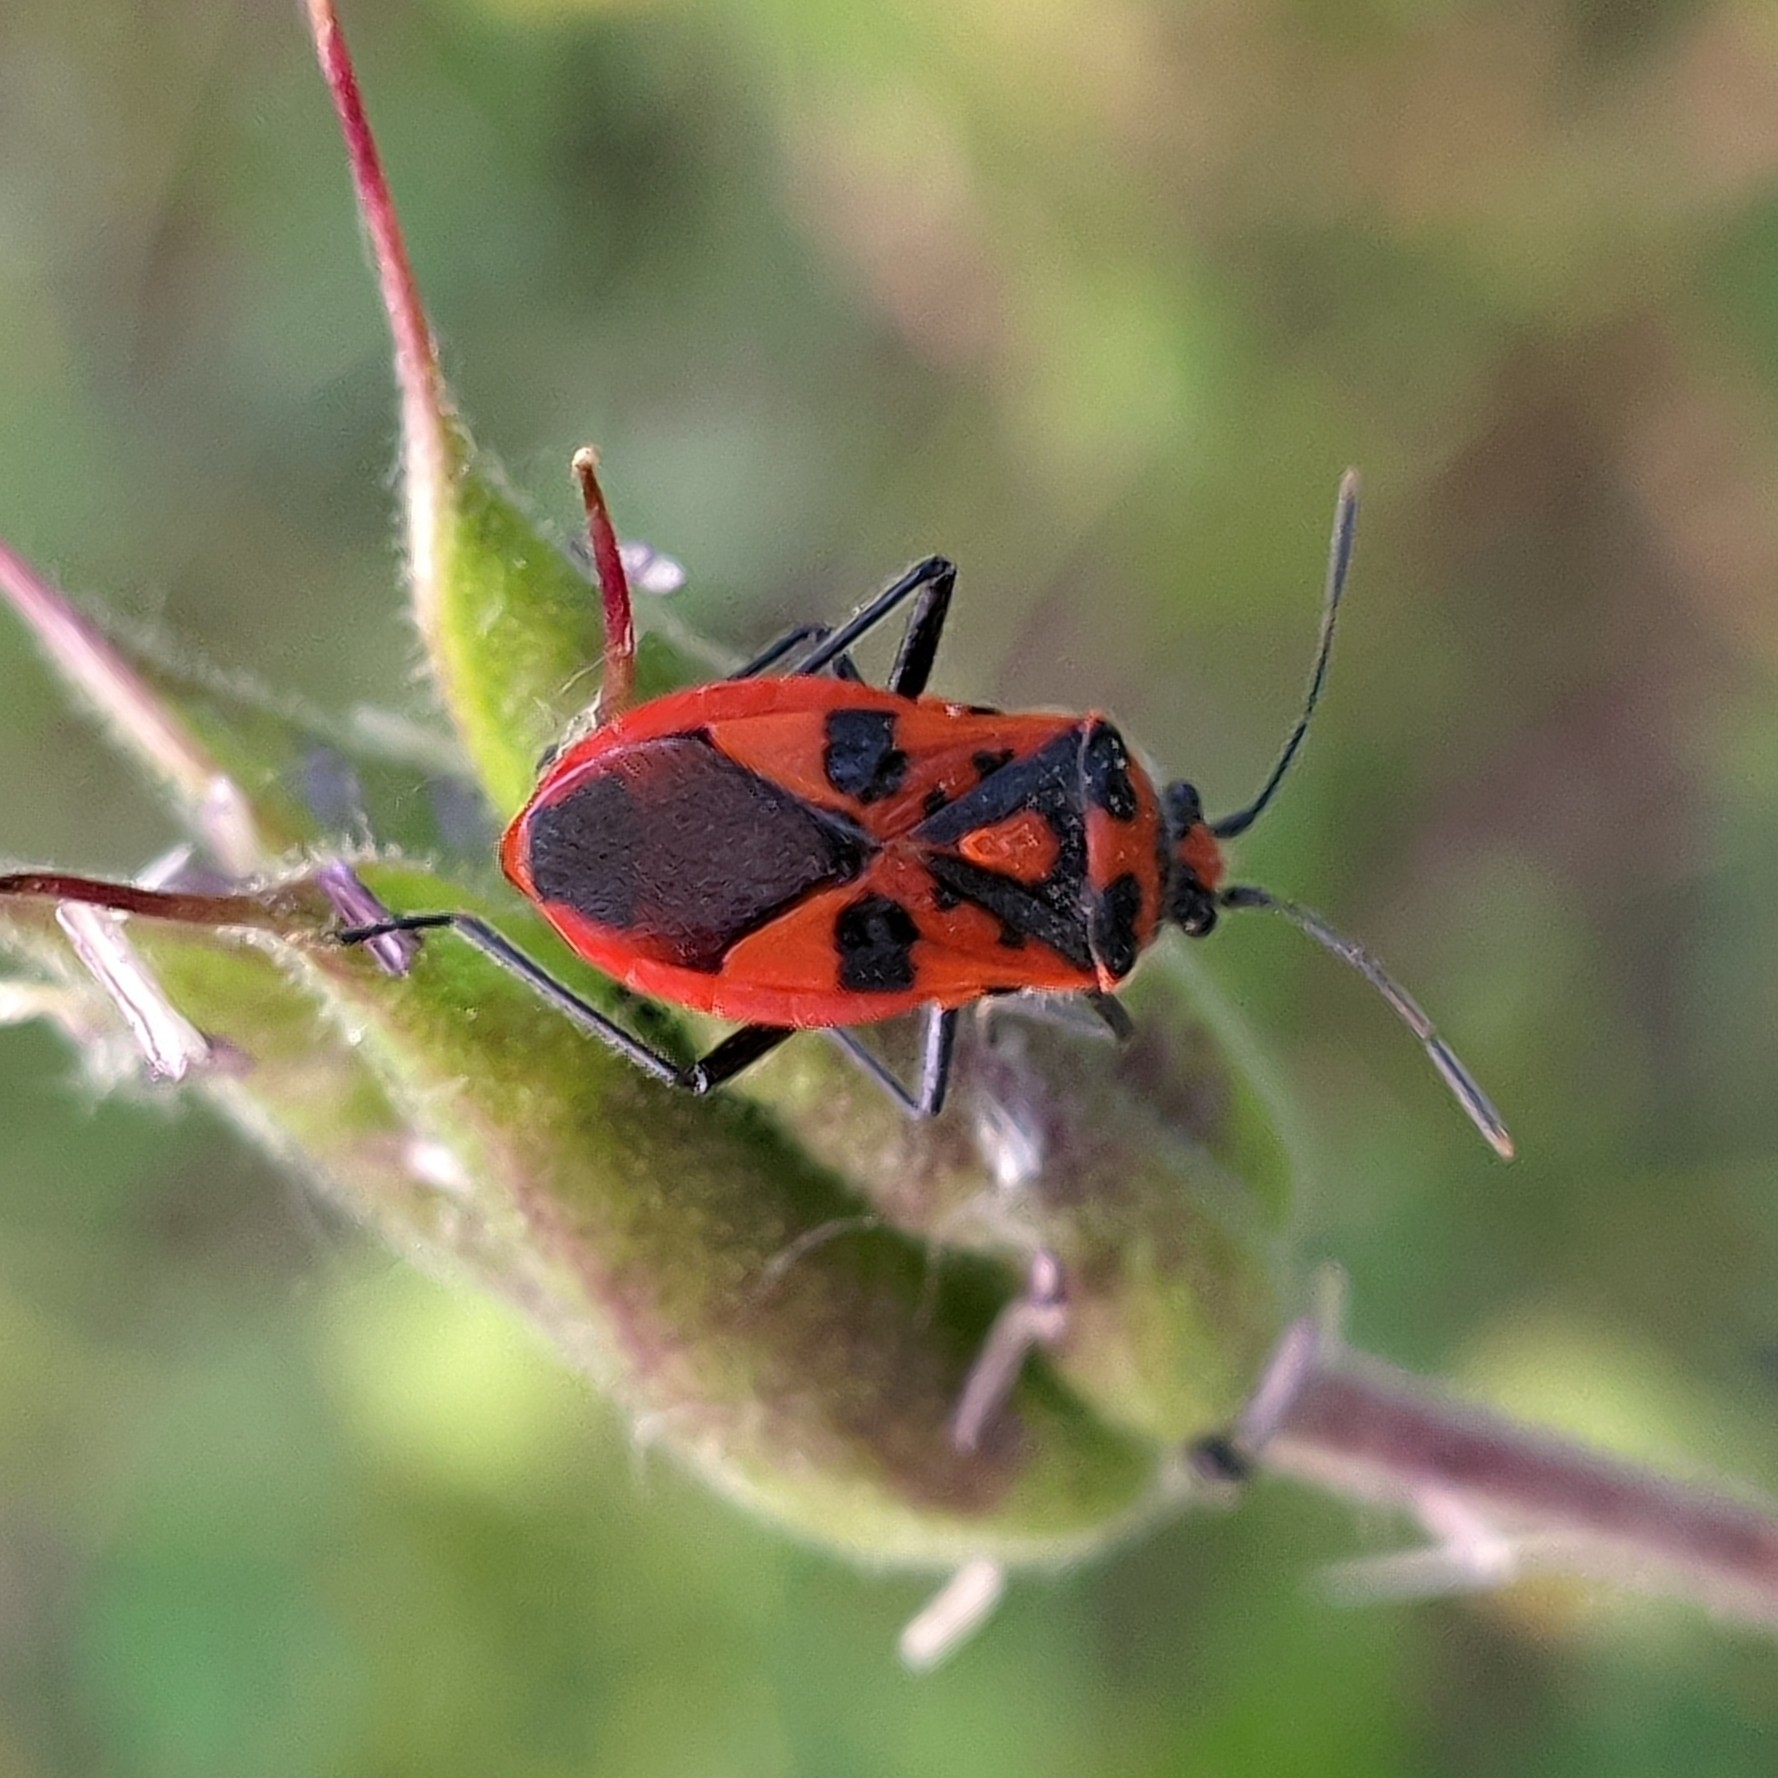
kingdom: Animalia
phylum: Arthropoda
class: Insecta
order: Hemiptera
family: Rhopalidae
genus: Corizus
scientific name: Corizus hyoscyami
